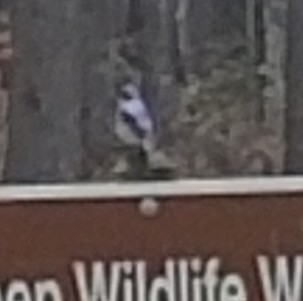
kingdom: Animalia
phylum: Chordata
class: Aves
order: Passeriformes
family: Corvidae
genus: Cyanocitta
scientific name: Cyanocitta cristata
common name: Blue jay
